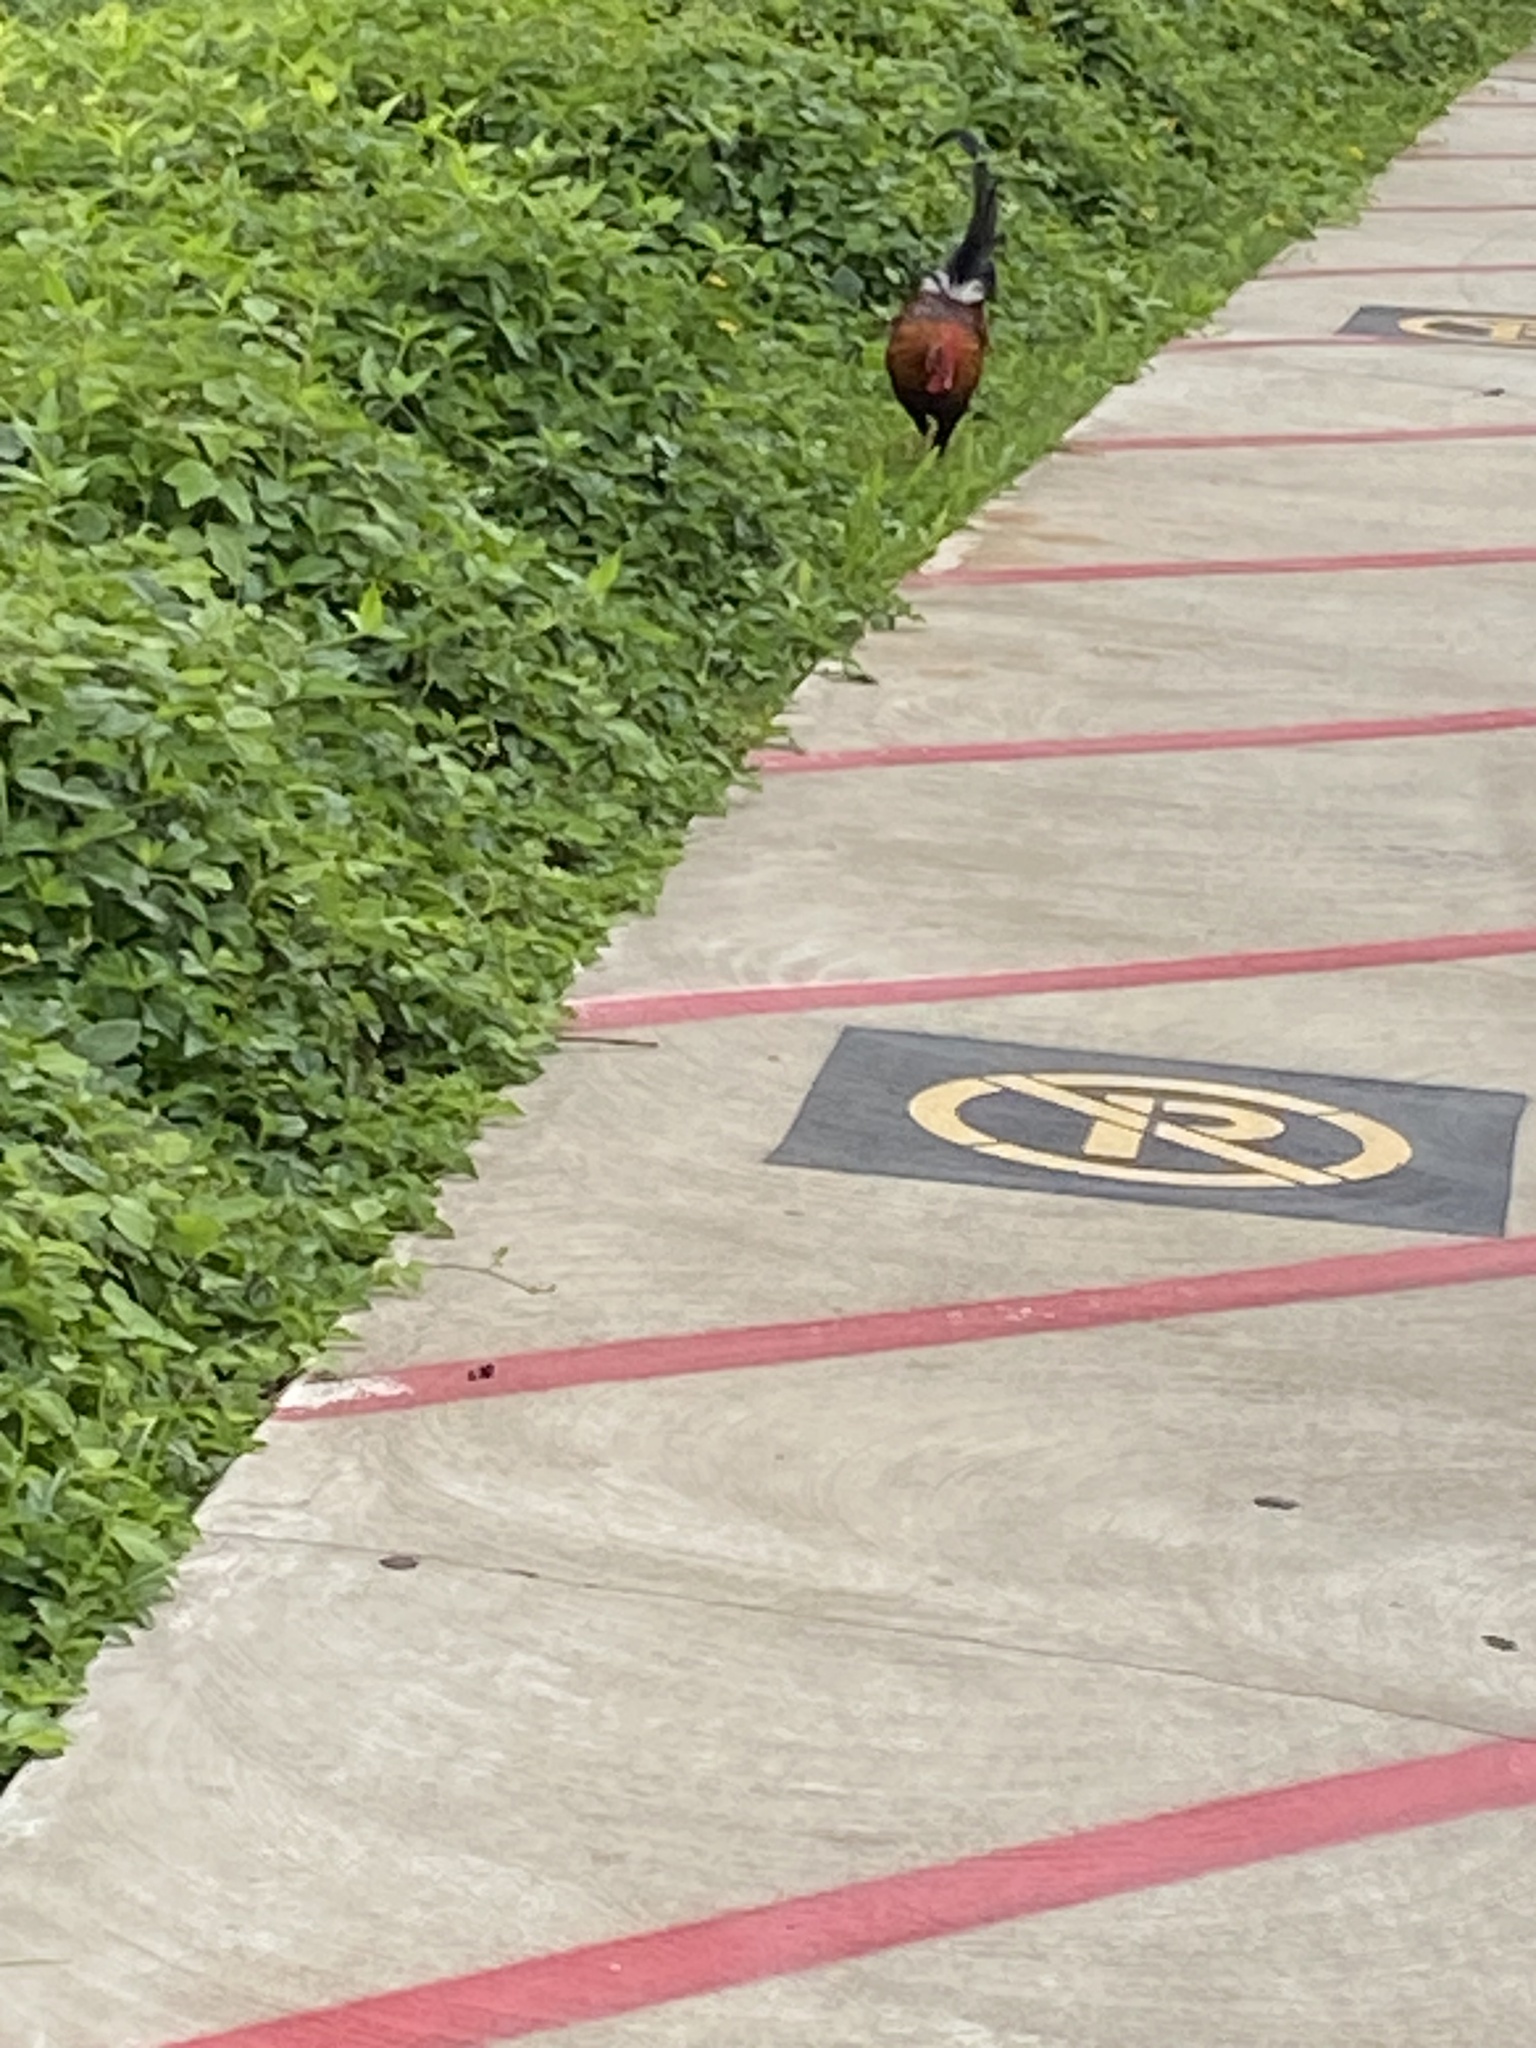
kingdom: Animalia
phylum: Chordata
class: Aves
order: Galliformes
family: Phasianidae
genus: Gallus
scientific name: Gallus gallus
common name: Red junglefowl
